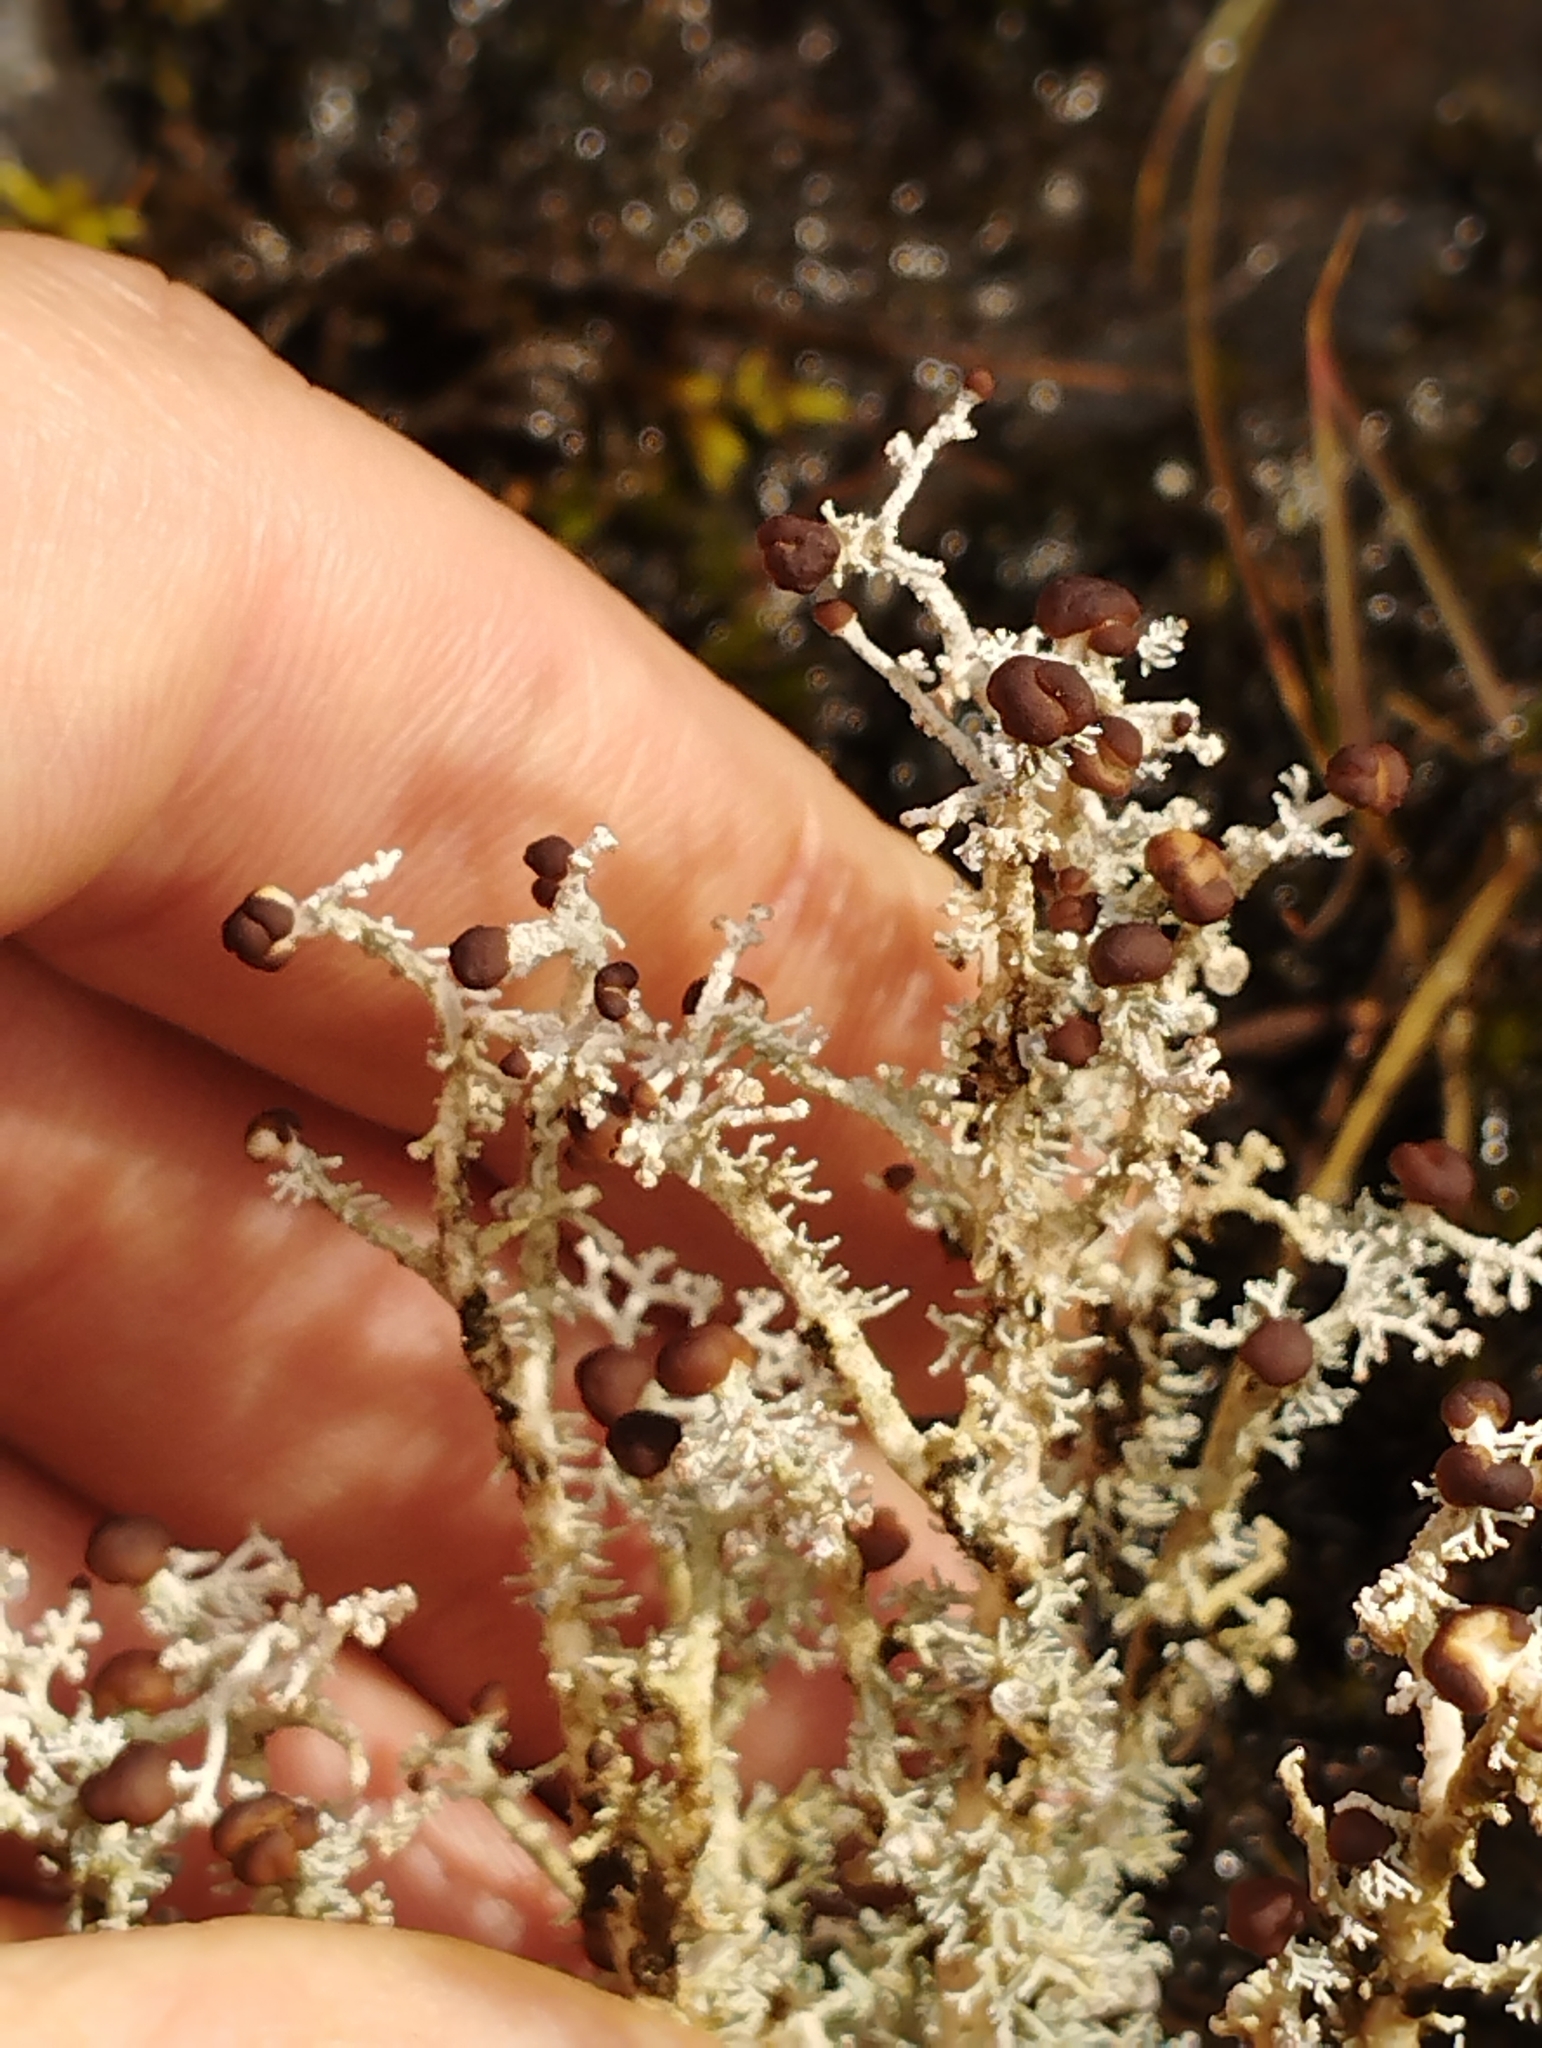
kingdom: Fungi
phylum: Ascomycota
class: Lecanoromycetes
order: Lecanorales
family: Stereocaulaceae
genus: Stereocaulon
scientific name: Stereocaulon ramulosum
